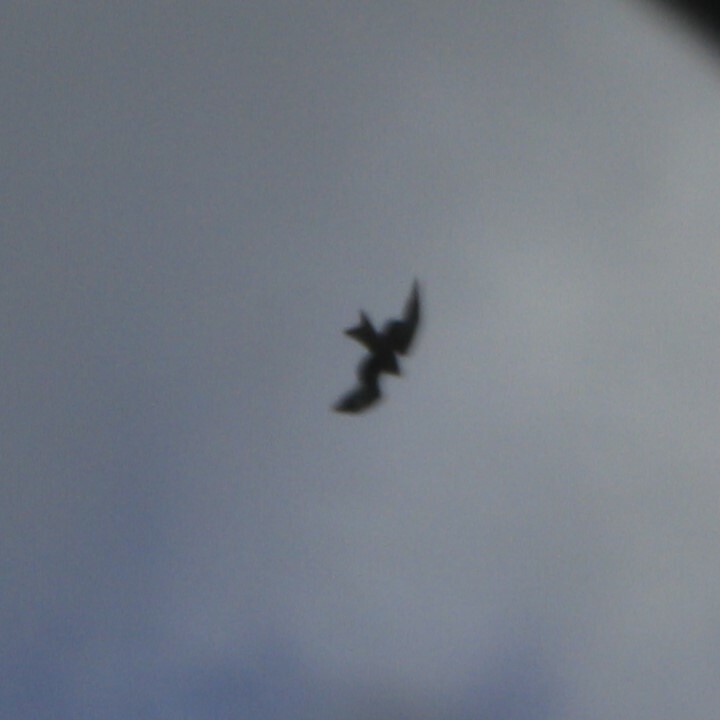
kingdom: Animalia
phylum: Chordata
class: Aves
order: Accipitriformes
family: Accipitridae
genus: Milvus
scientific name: Milvus milvus
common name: Red kite
